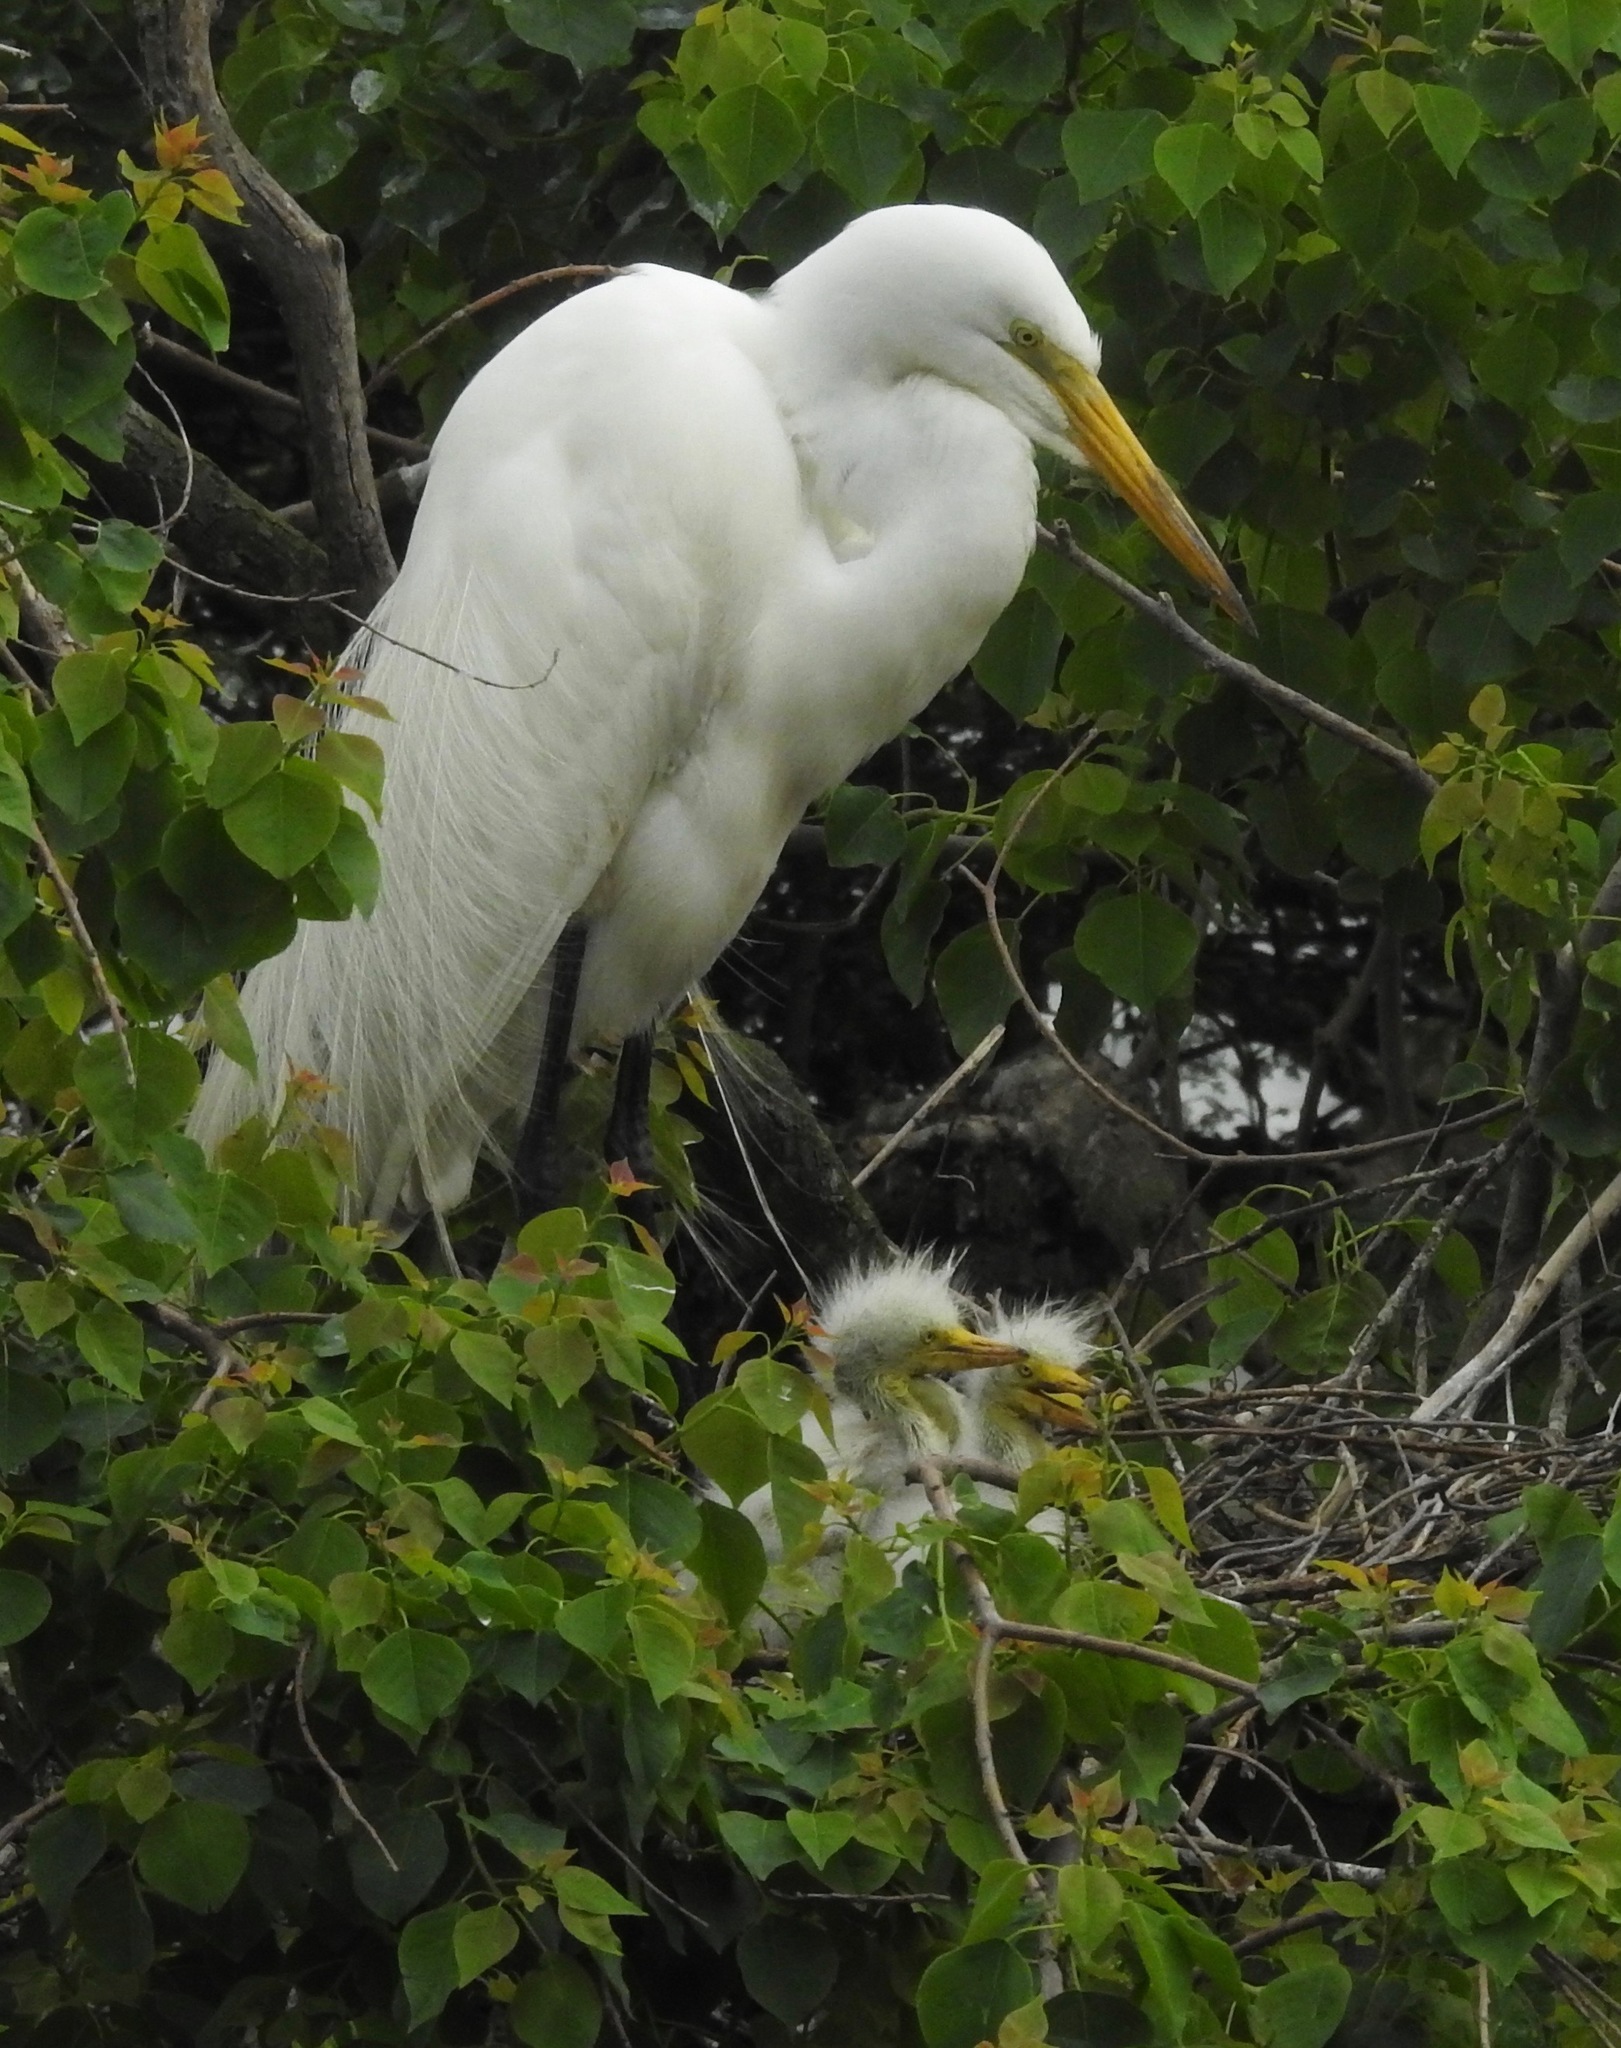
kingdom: Animalia
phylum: Chordata
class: Aves
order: Pelecaniformes
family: Ardeidae
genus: Ardea
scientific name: Ardea alba
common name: Great egret
